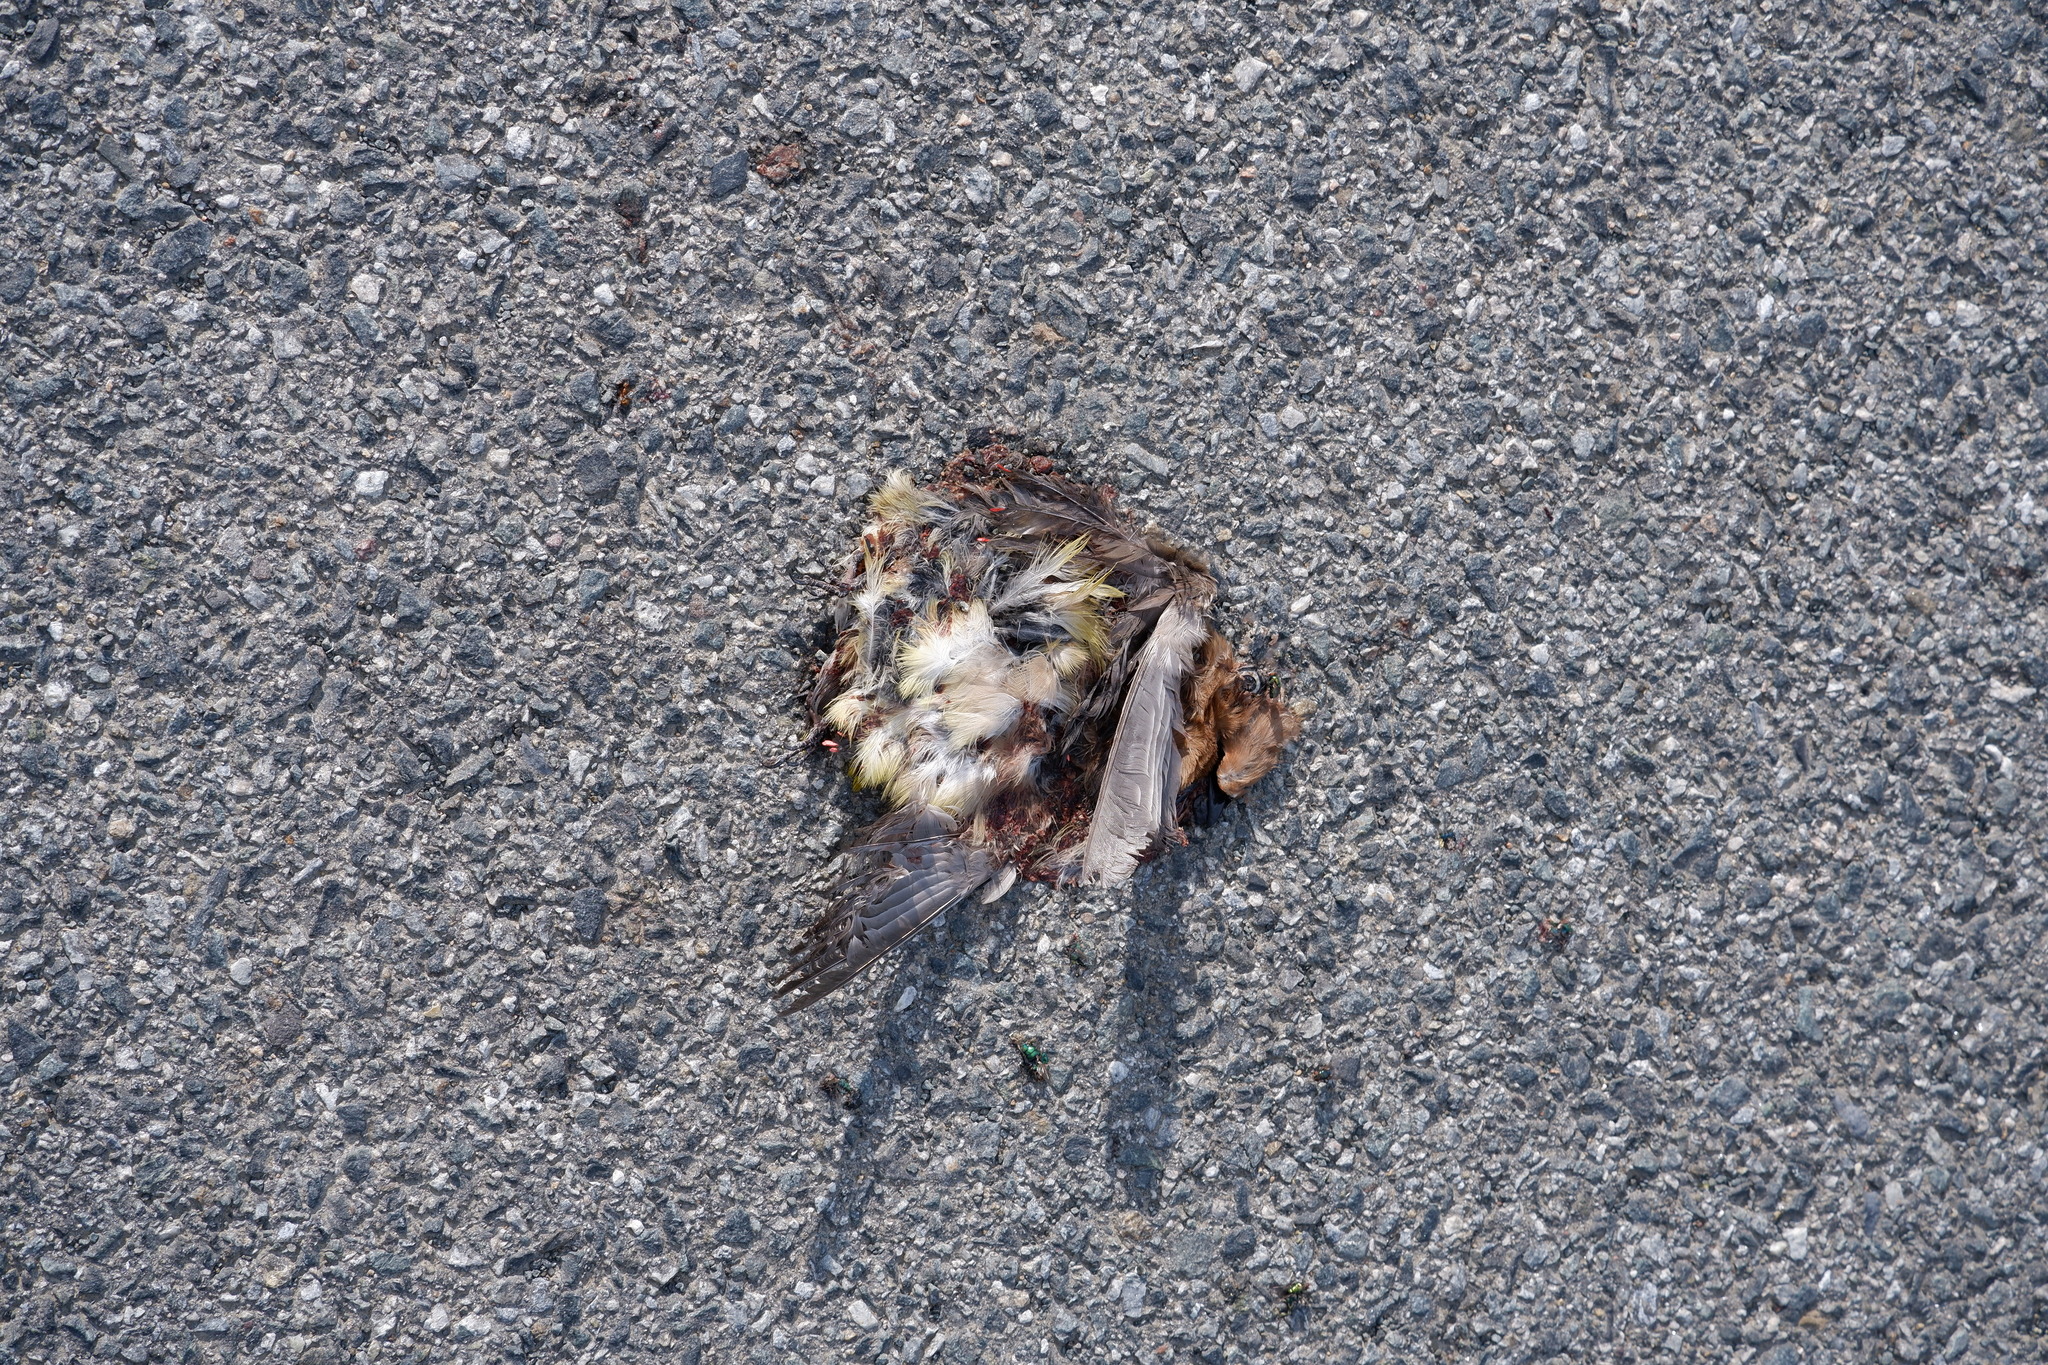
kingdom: Animalia
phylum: Chordata
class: Aves
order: Passeriformes
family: Bombycillidae
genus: Bombycilla
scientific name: Bombycilla cedrorum
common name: Cedar waxwing
